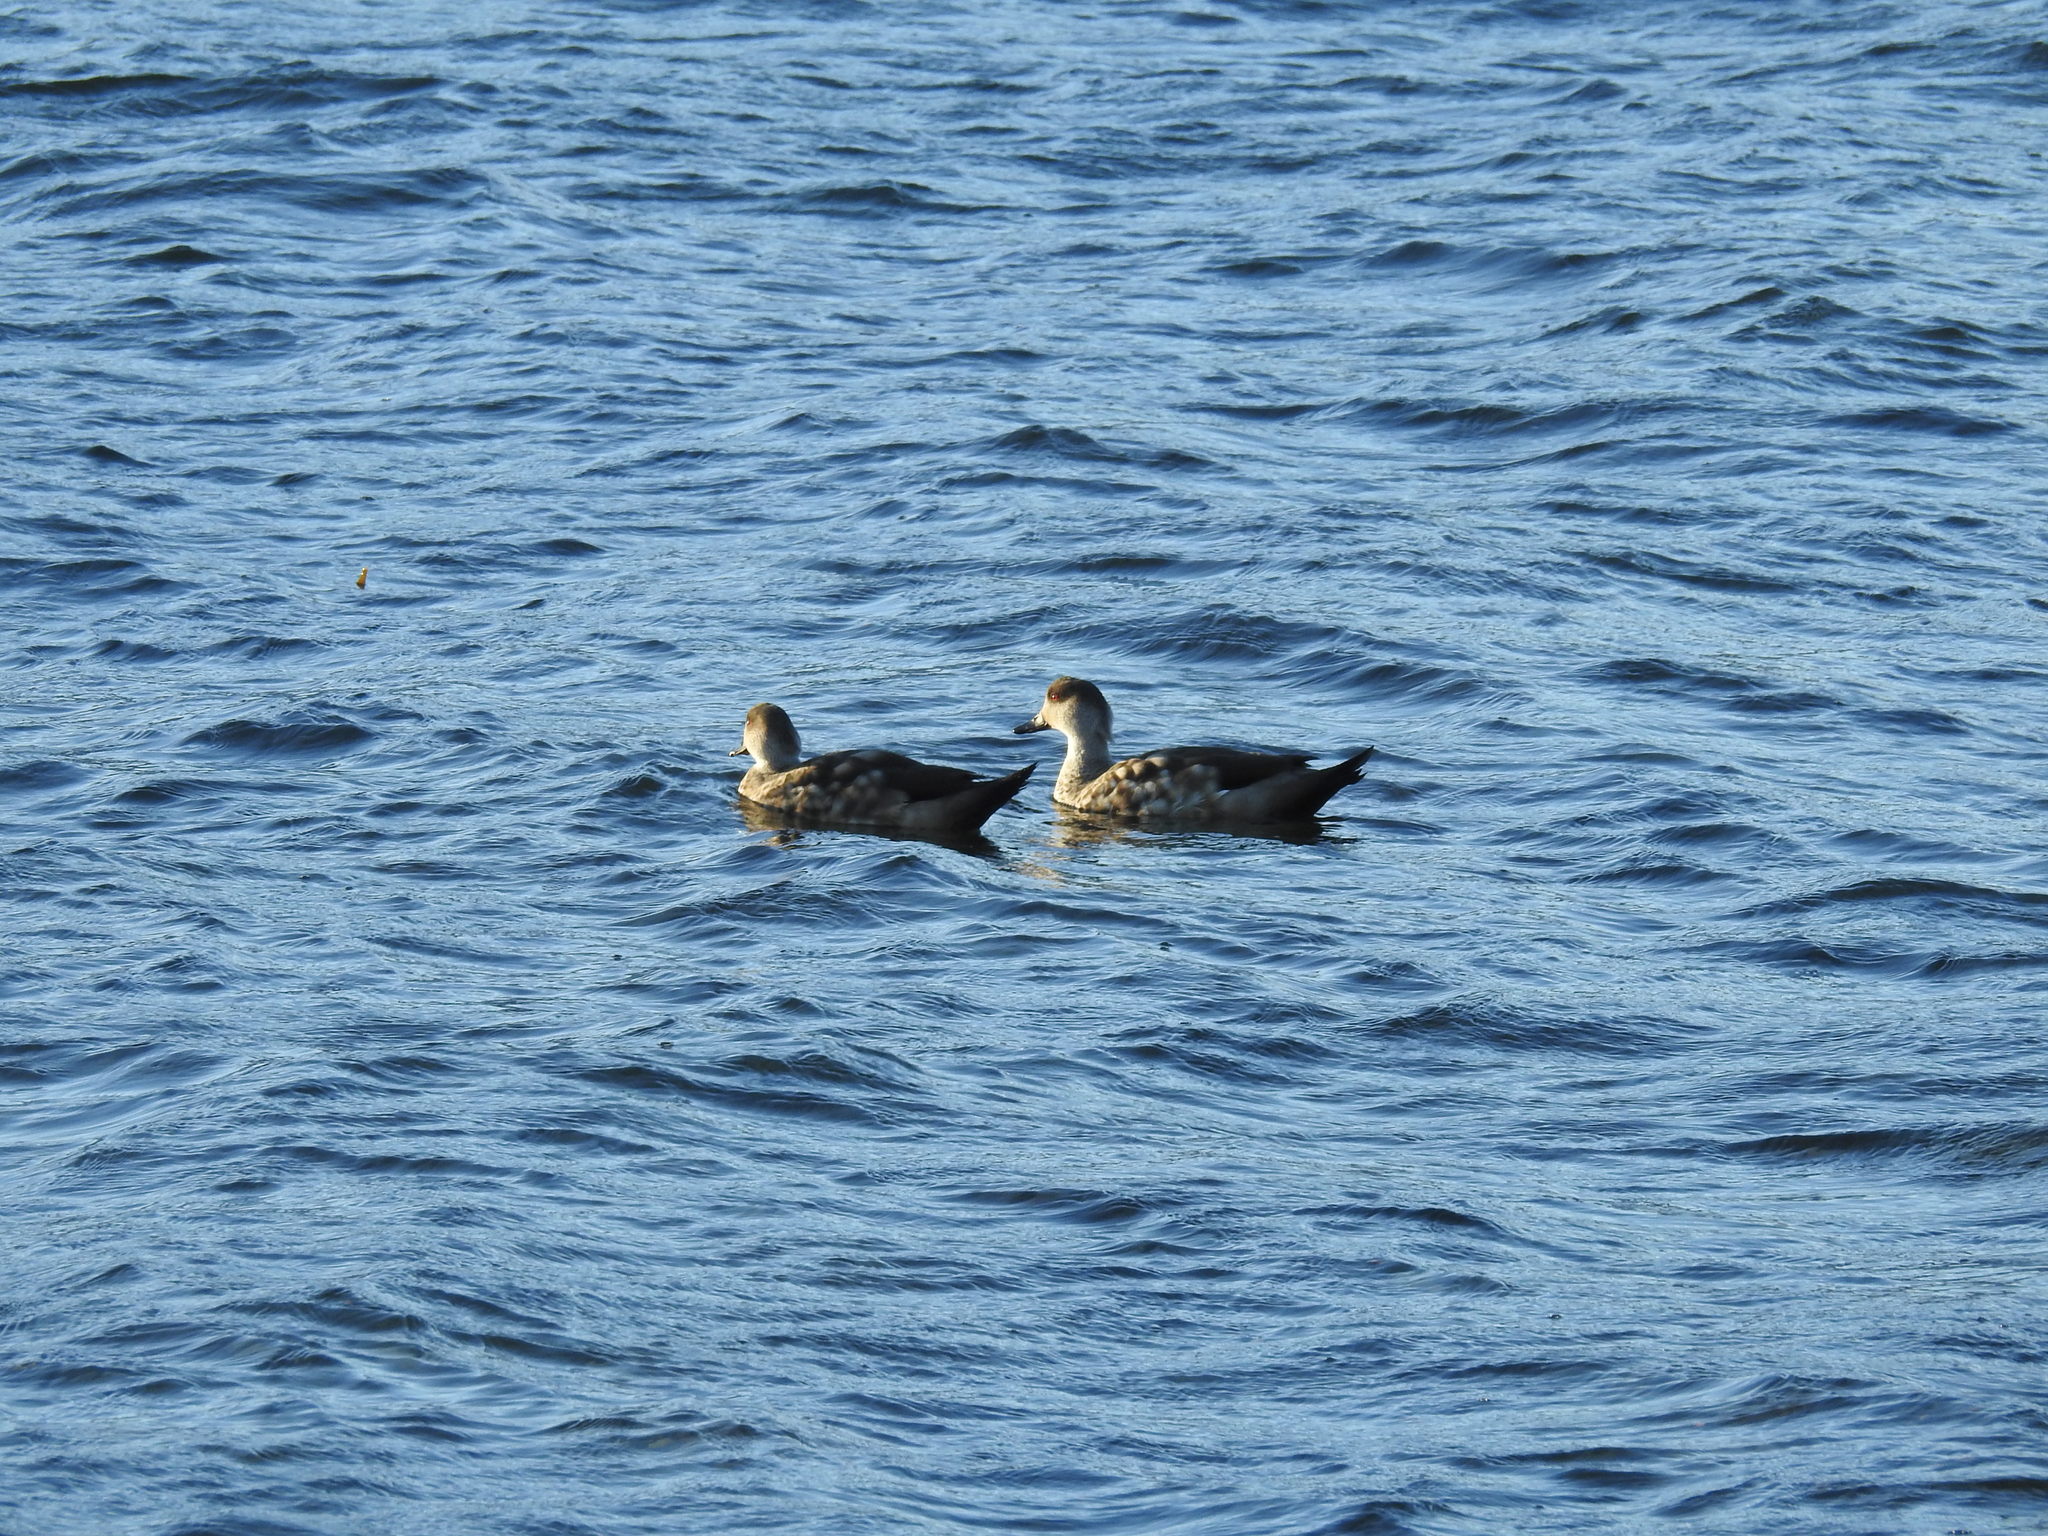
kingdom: Animalia
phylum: Chordata
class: Aves
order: Anseriformes
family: Anatidae
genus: Lophonetta
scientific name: Lophonetta specularioides
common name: Crested duck
